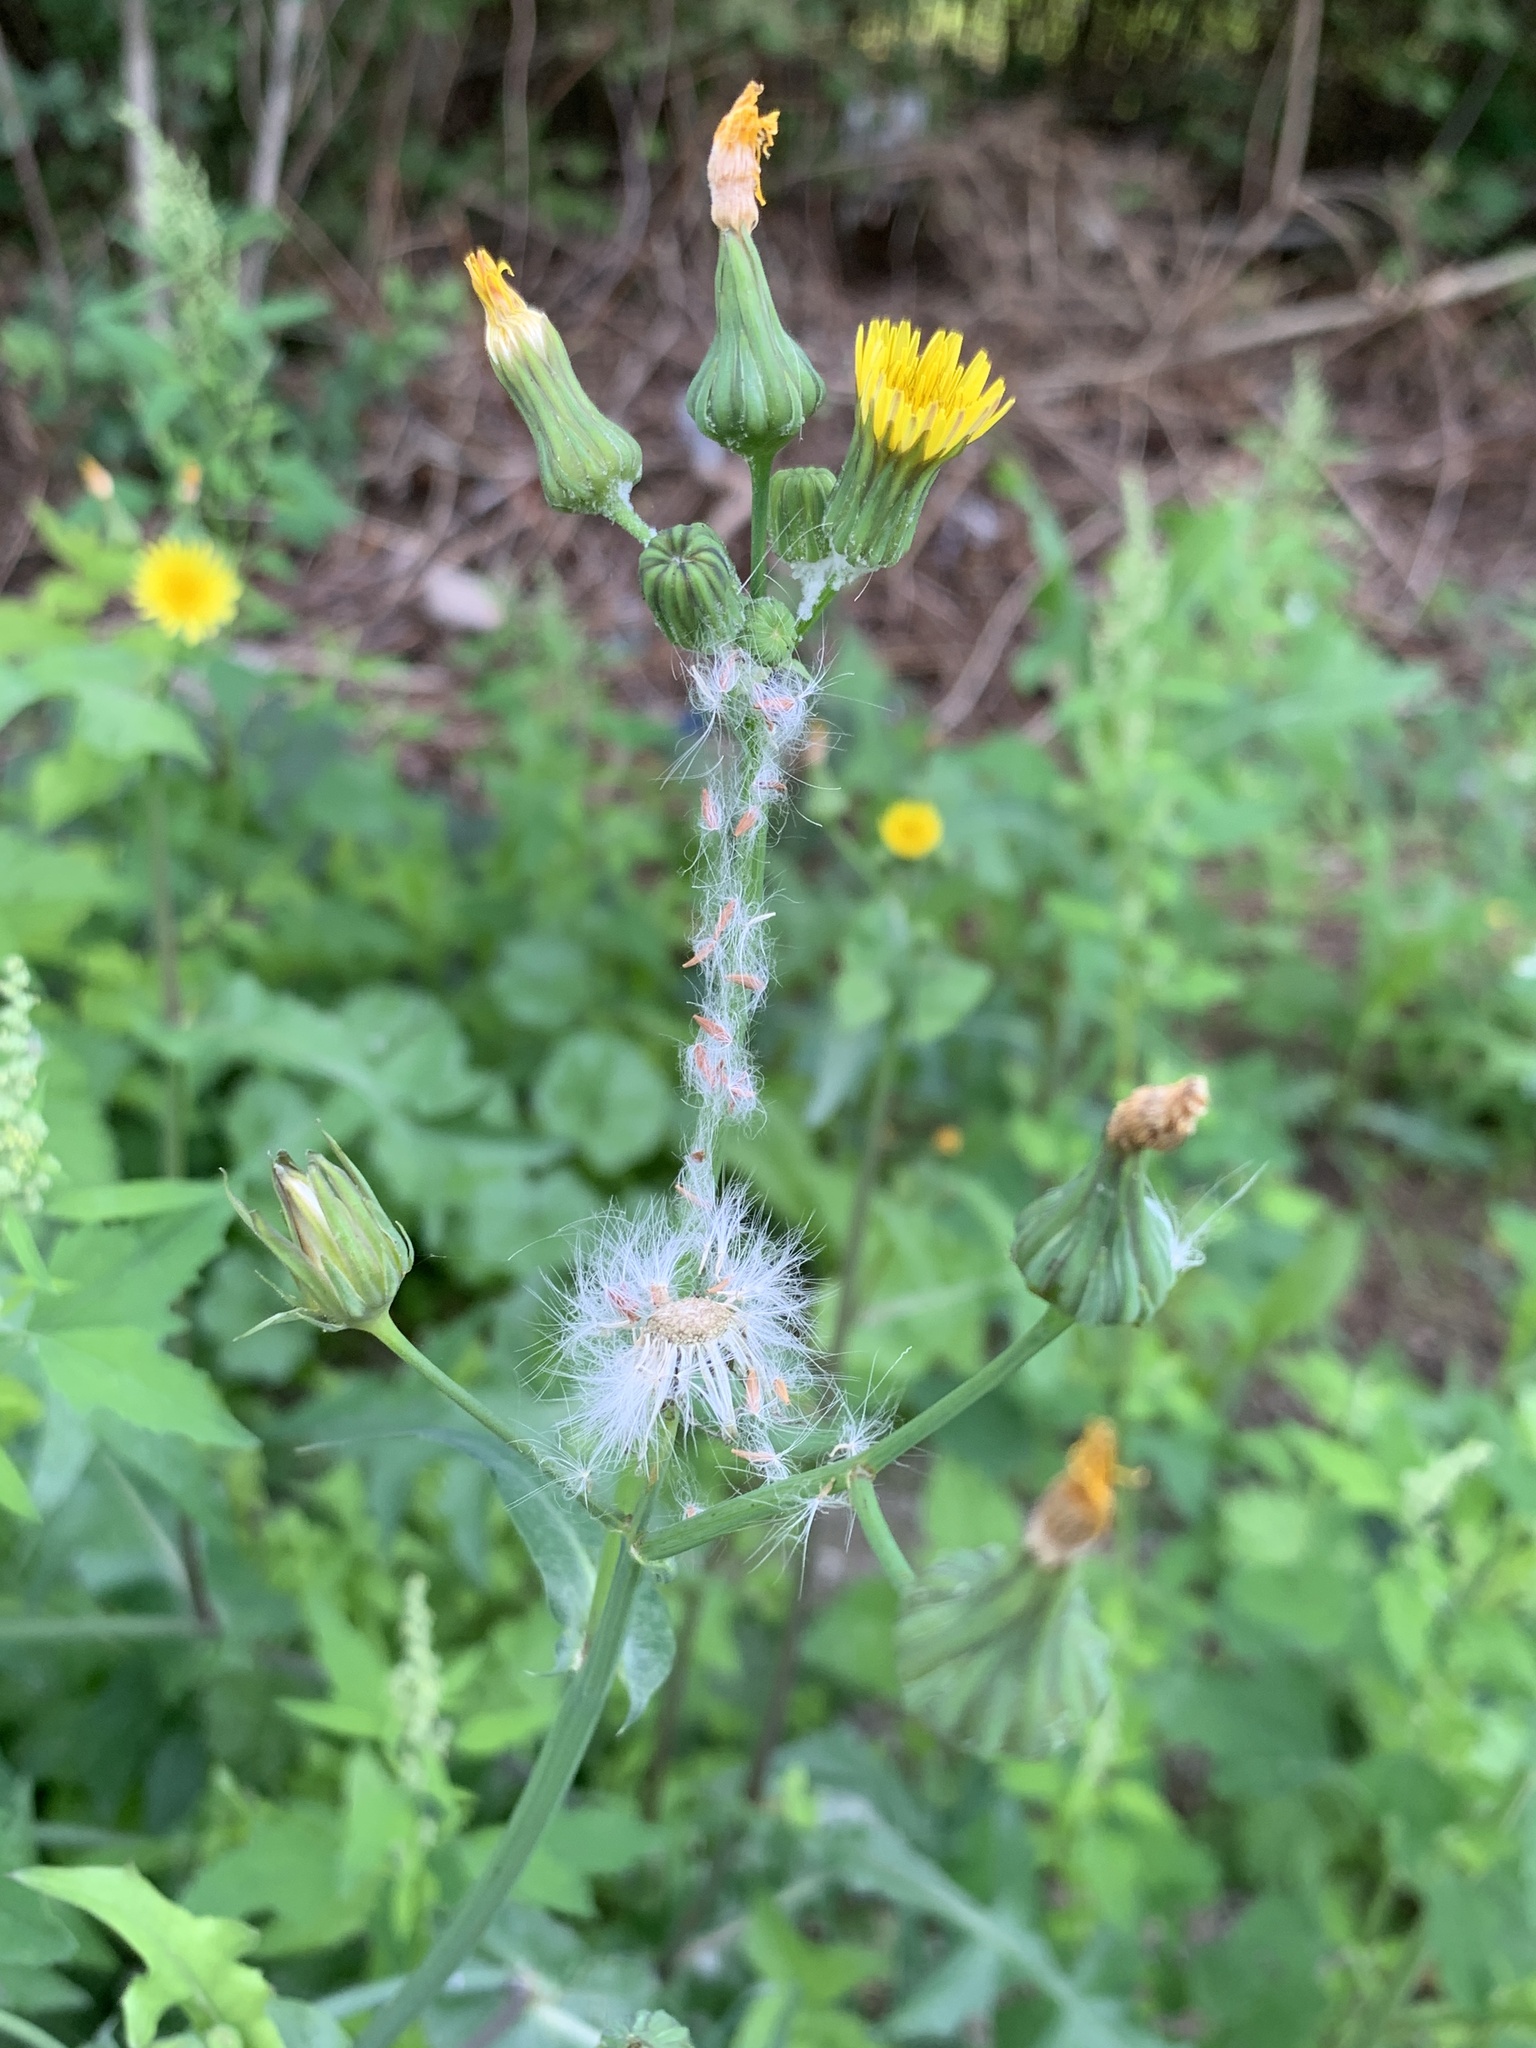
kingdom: Plantae
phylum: Tracheophyta
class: Magnoliopsida
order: Asterales
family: Asteraceae
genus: Sonchus
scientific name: Sonchus oleraceus
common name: Common sowthistle
